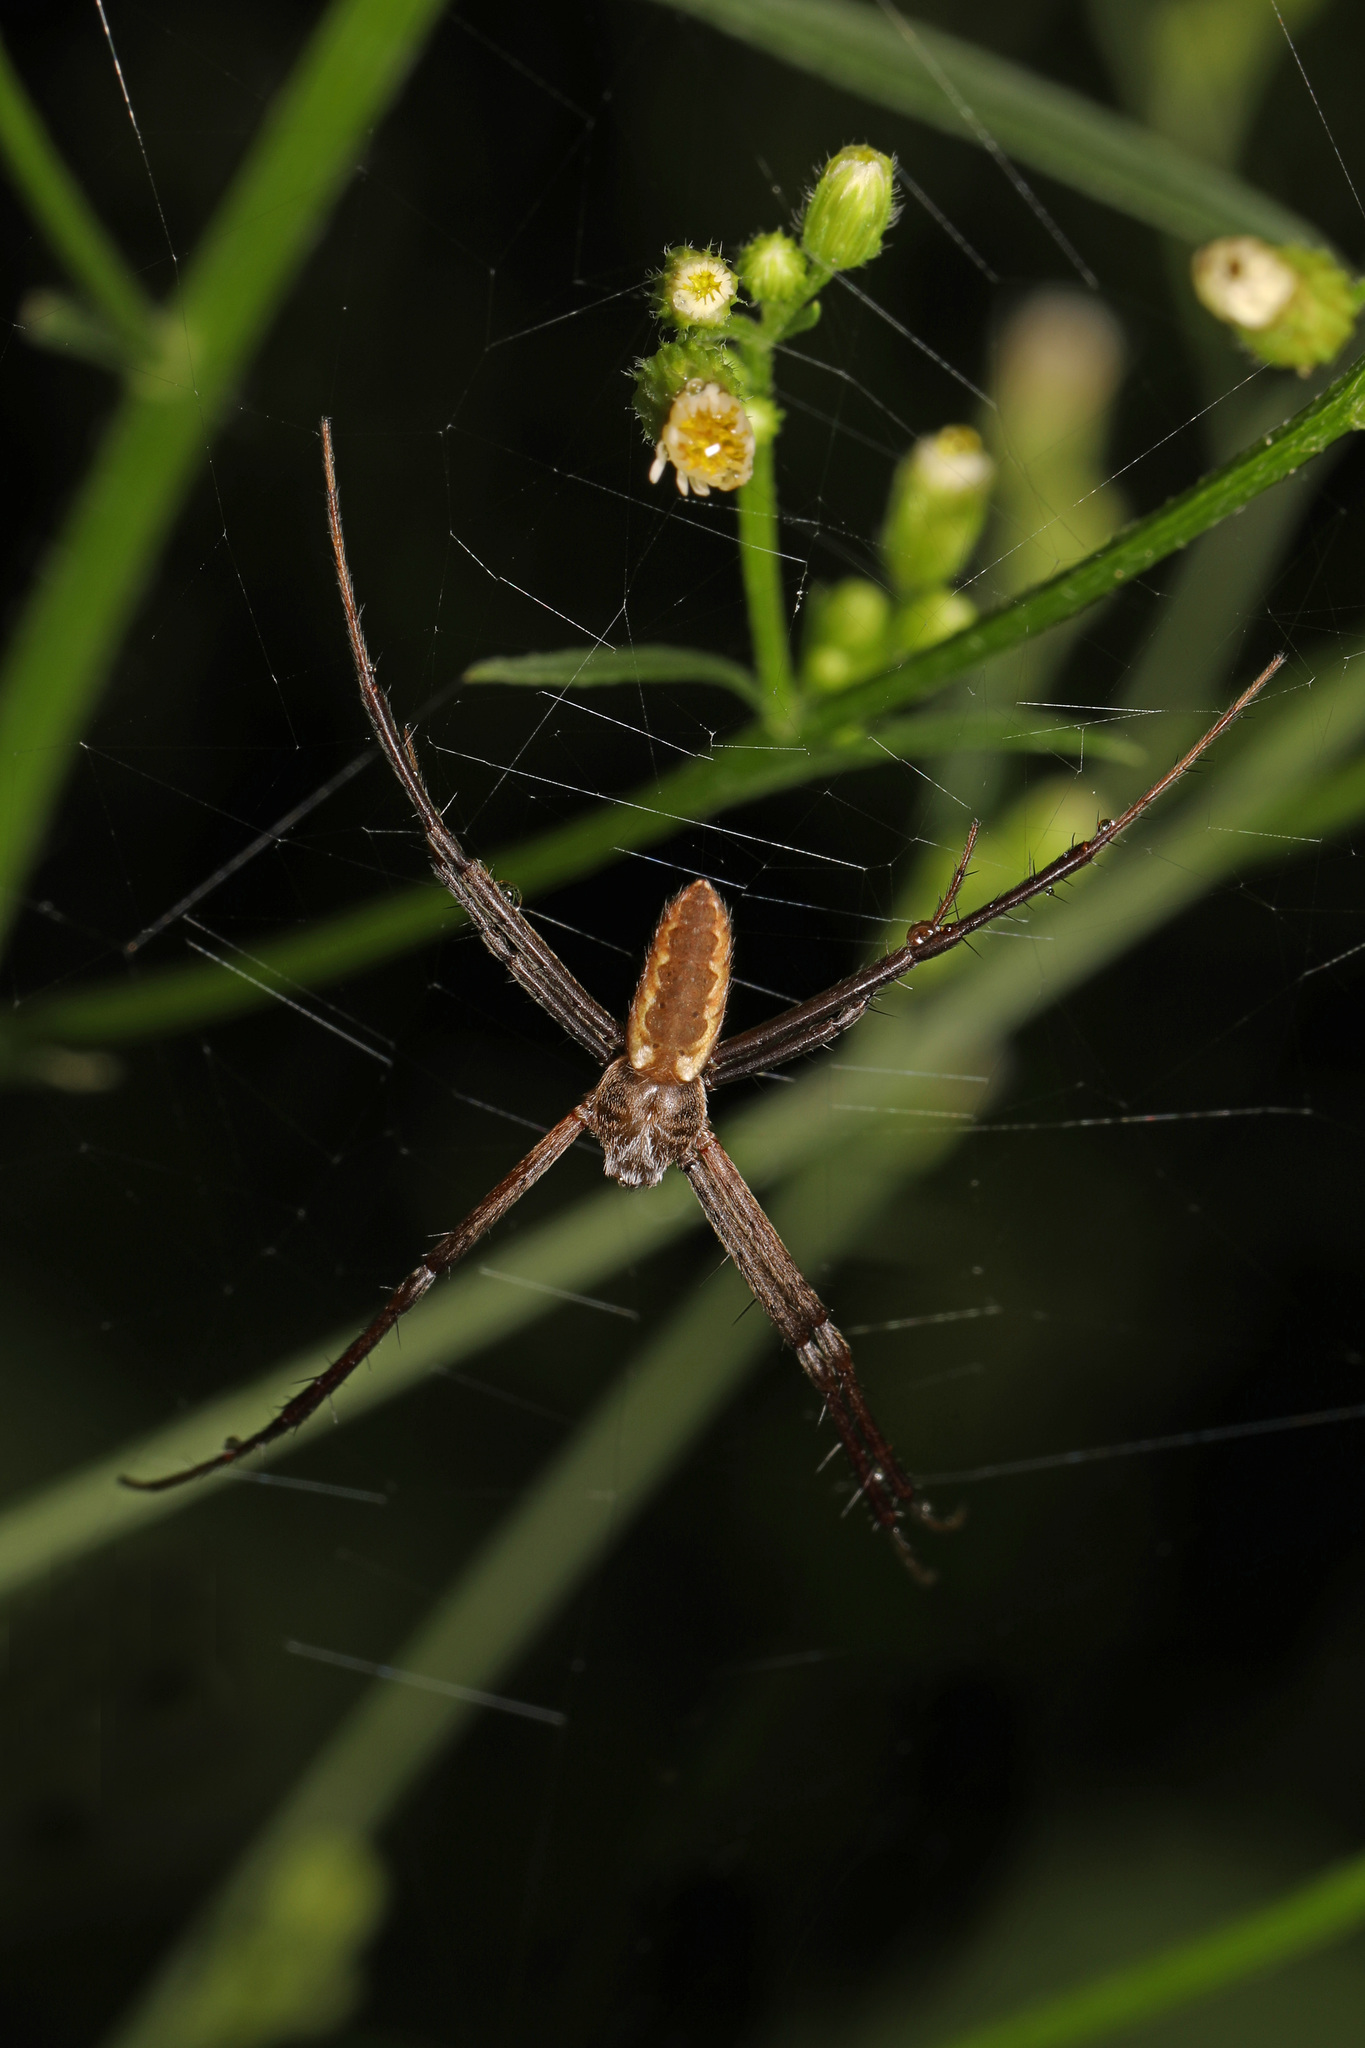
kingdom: Animalia
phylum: Arthropoda
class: Arachnida
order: Araneae
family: Araneidae
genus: Argiope
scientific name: Argiope aurantia
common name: Orb weavers
